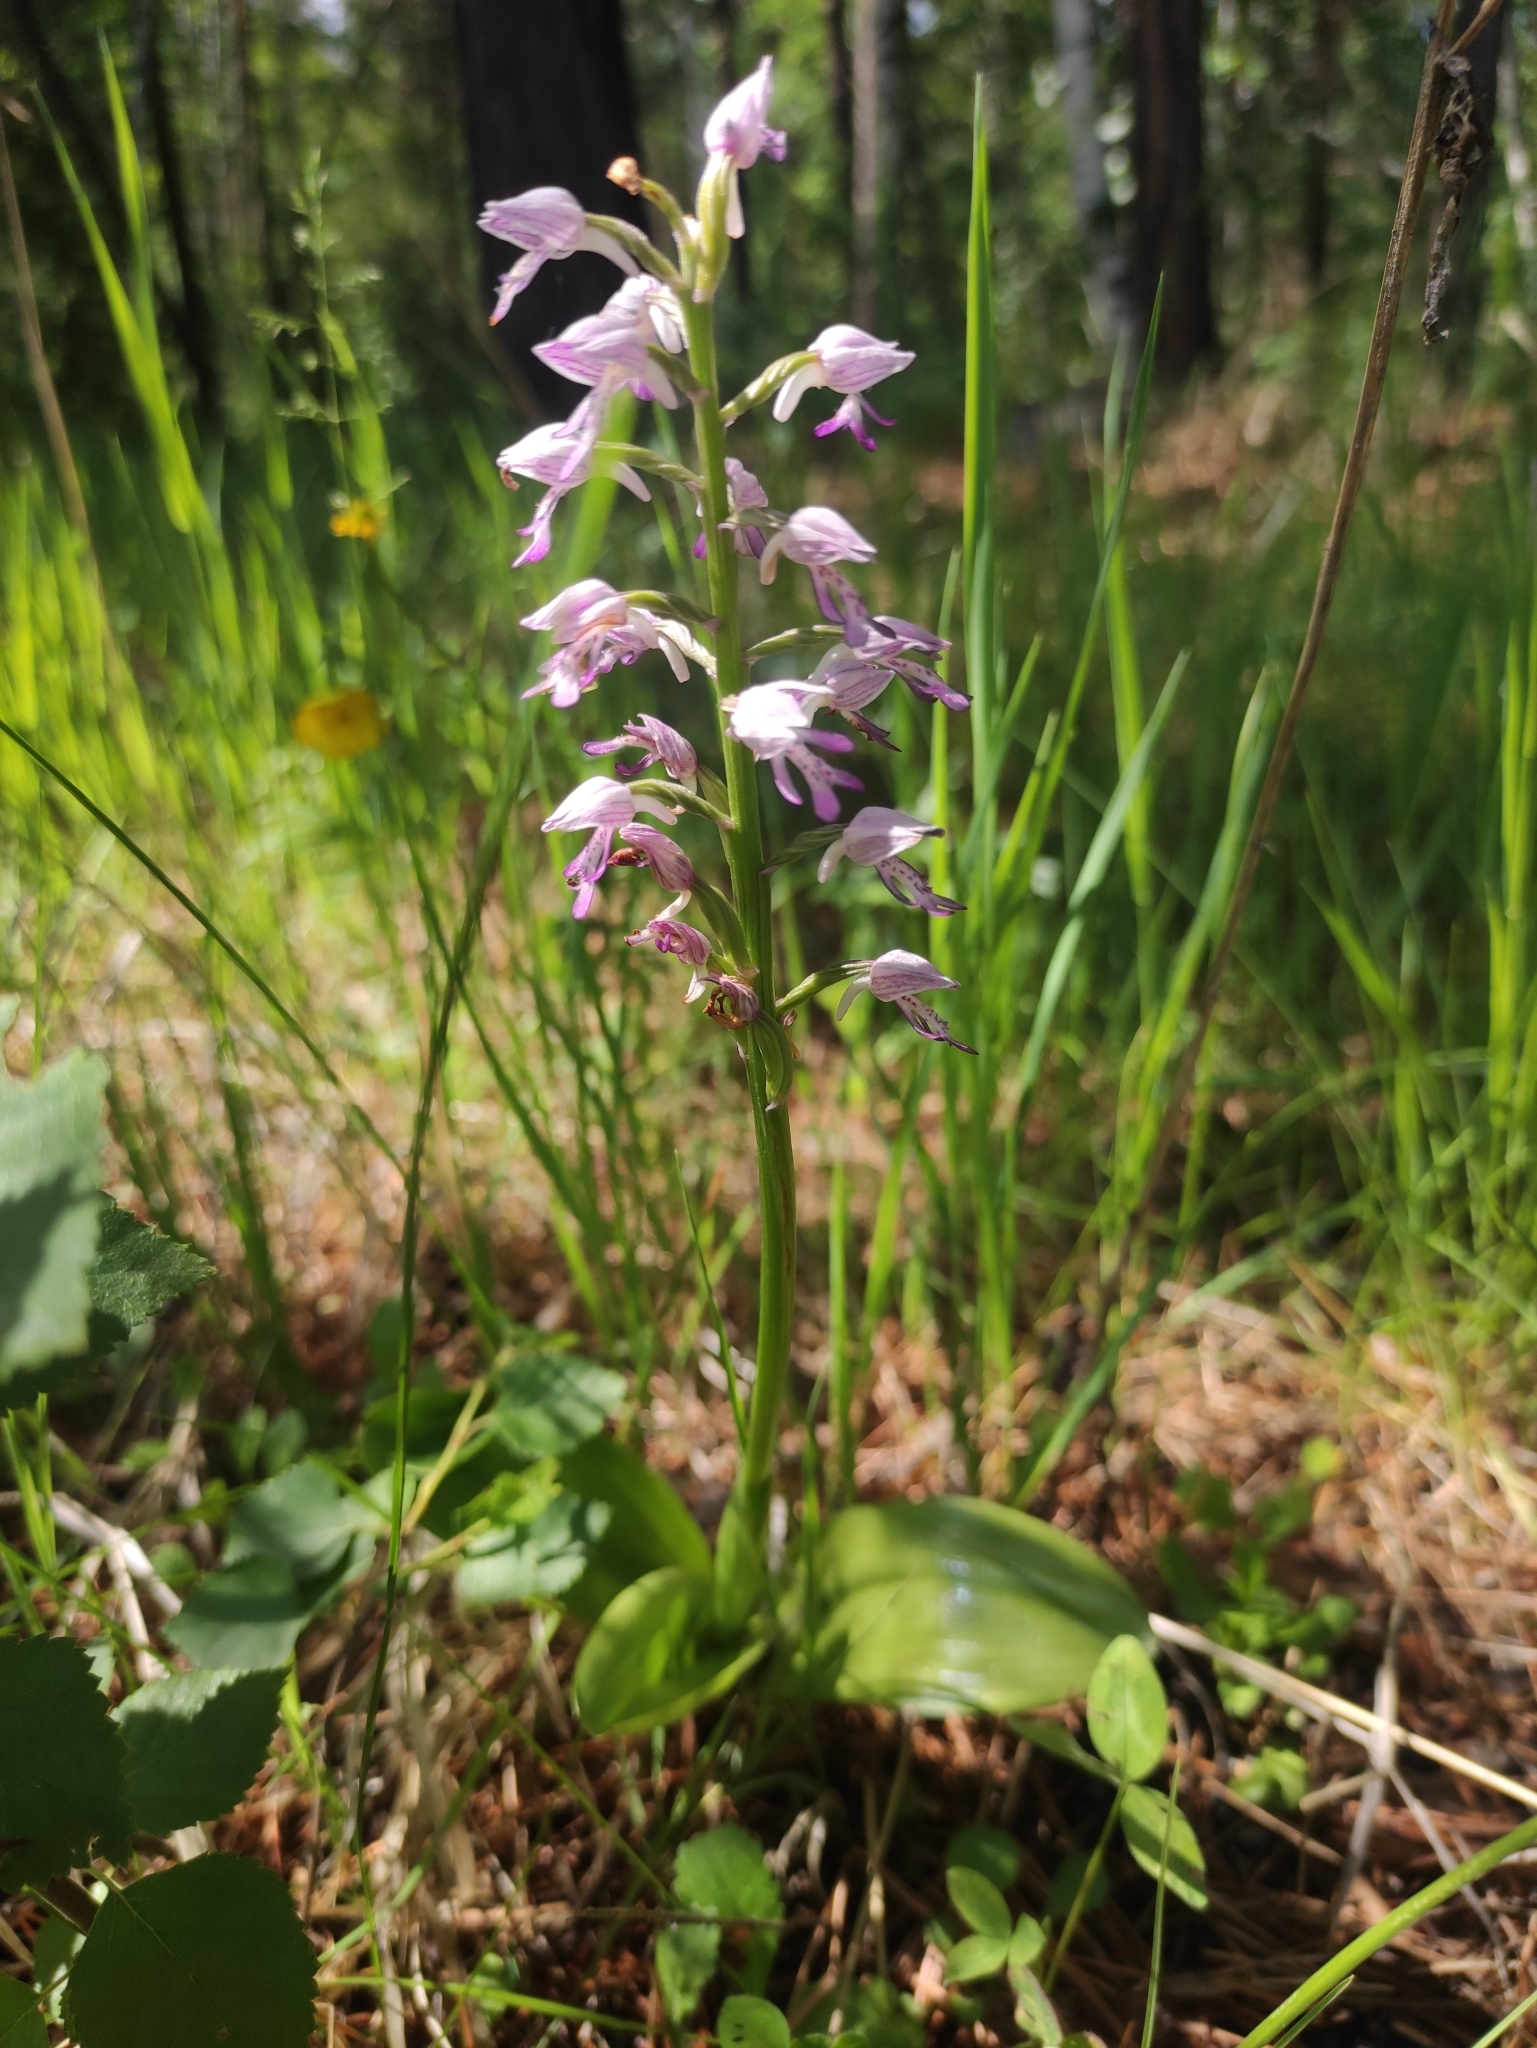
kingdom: Plantae
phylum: Tracheophyta
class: Liliopsida
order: Asparagales
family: Orchidaceae
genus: Orchis
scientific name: Orchis militaris
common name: Military orchid
